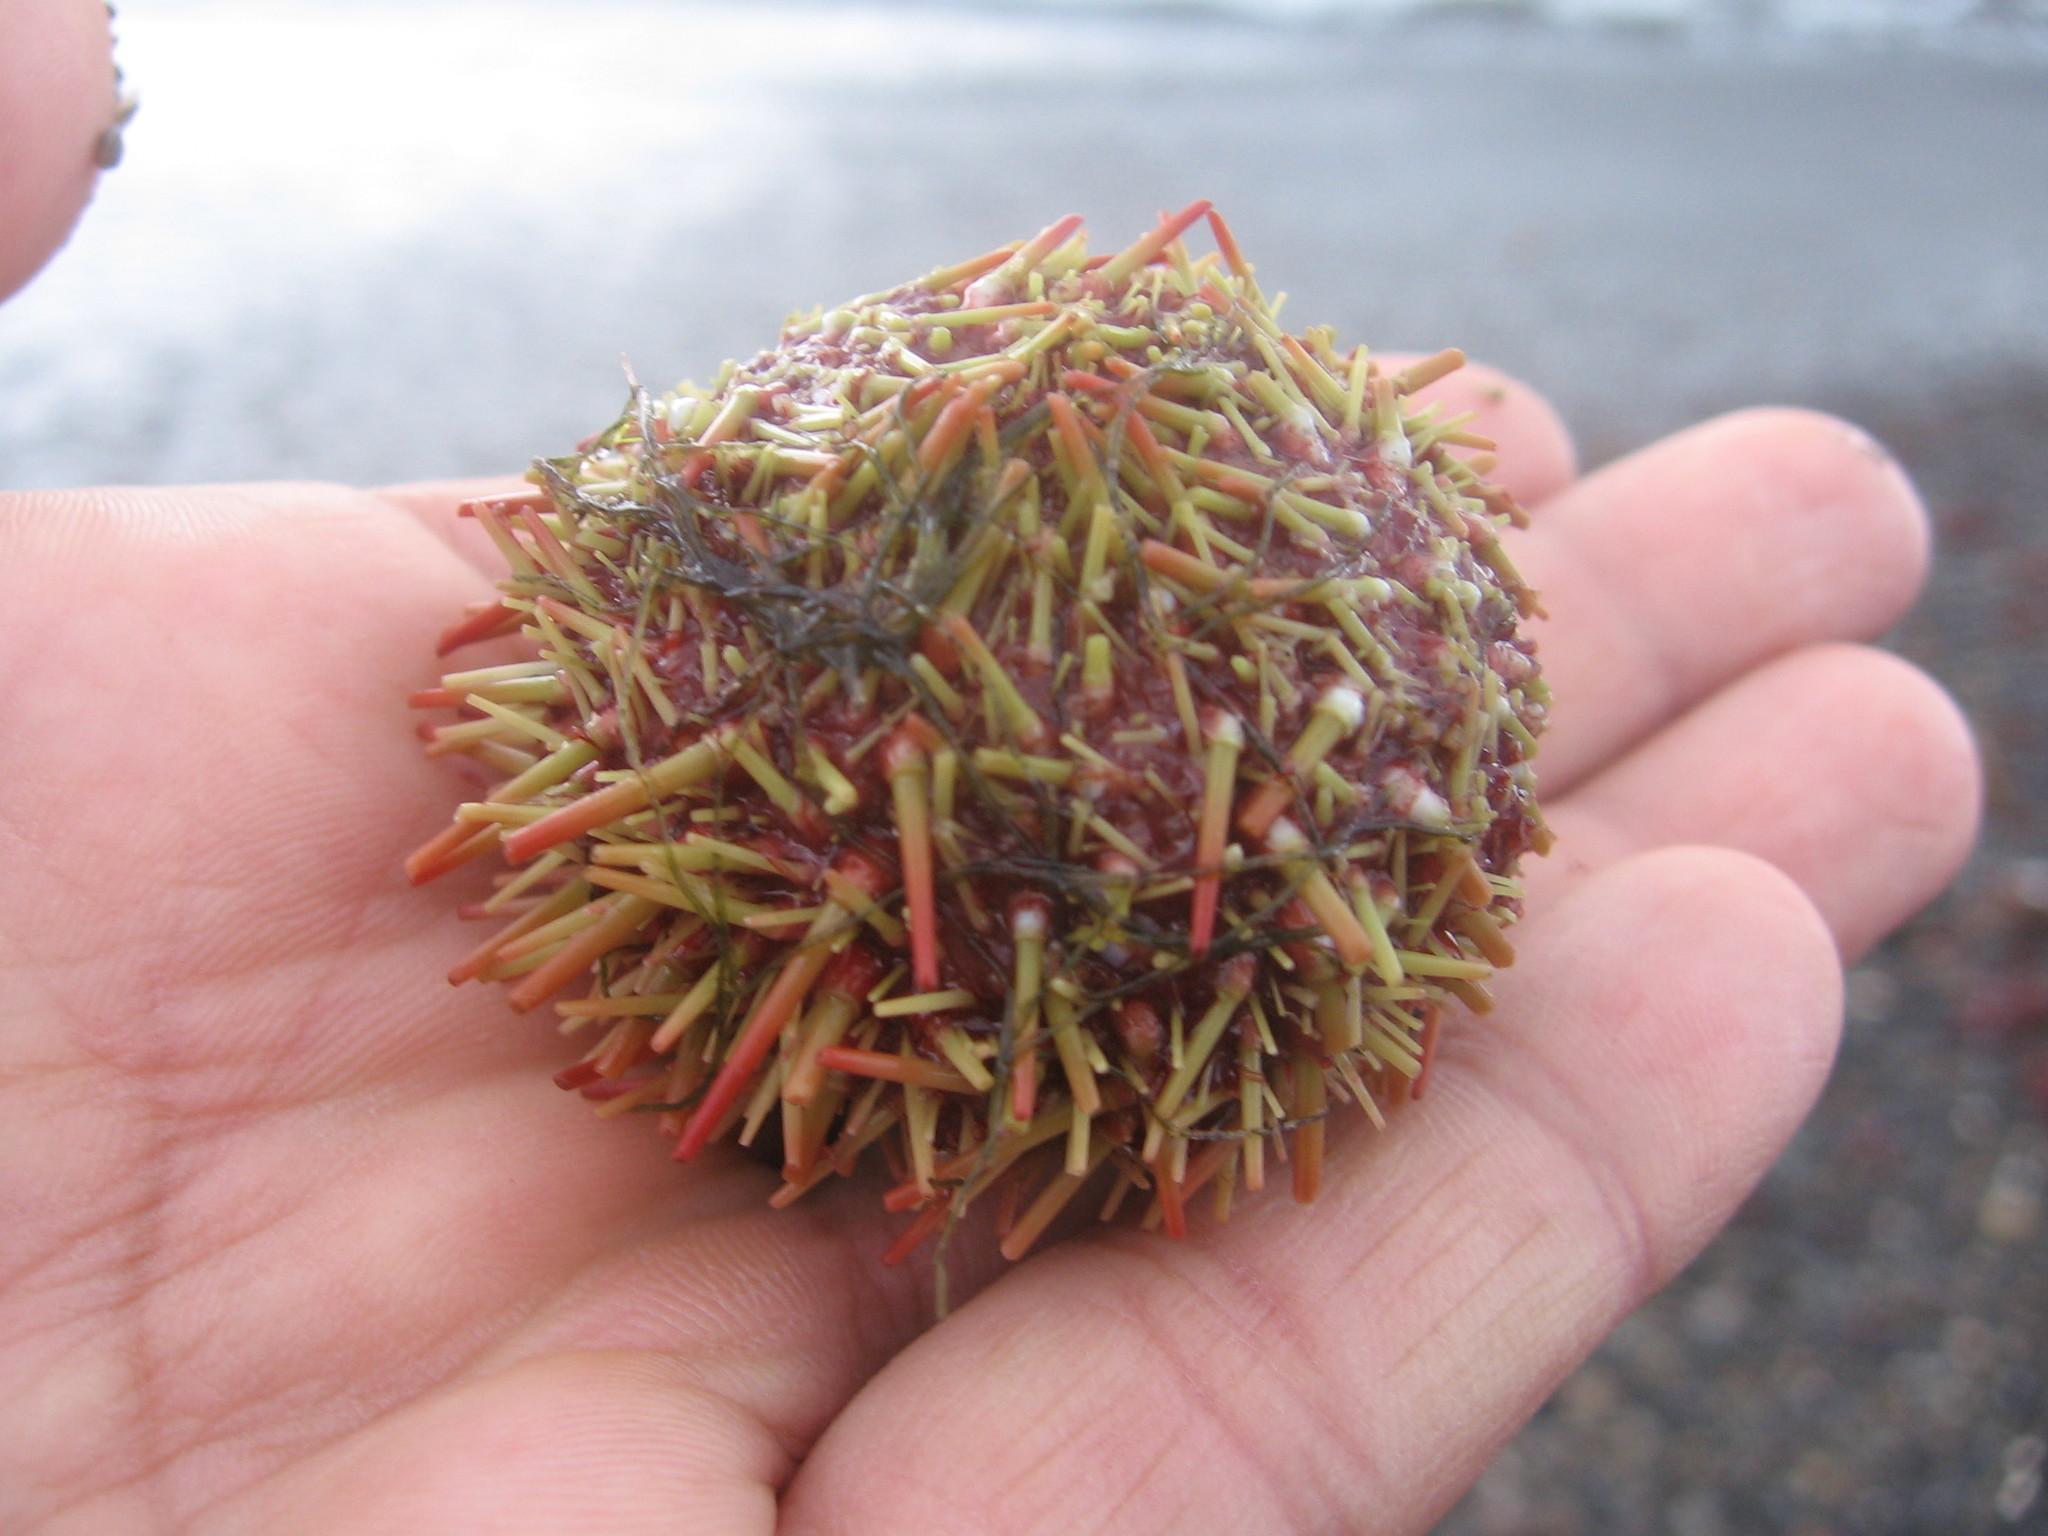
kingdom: Animalia
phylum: Echinodermata
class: Echinoidea
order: Camarodonta
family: Parechinidae
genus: Loxechinus
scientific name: Loxechinus albus
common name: Chilean sea urchin
